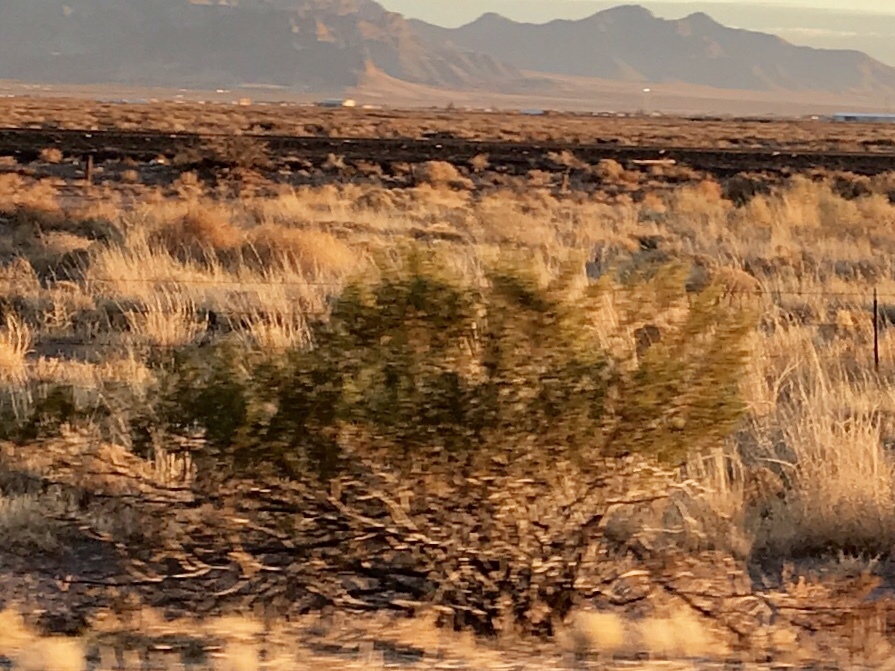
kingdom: Plantae
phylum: Tracheophyta
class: Magnoliopsida
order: Zygophyllales
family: Zygophyllaceae
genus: Larrea
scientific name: Larrea tridentata
